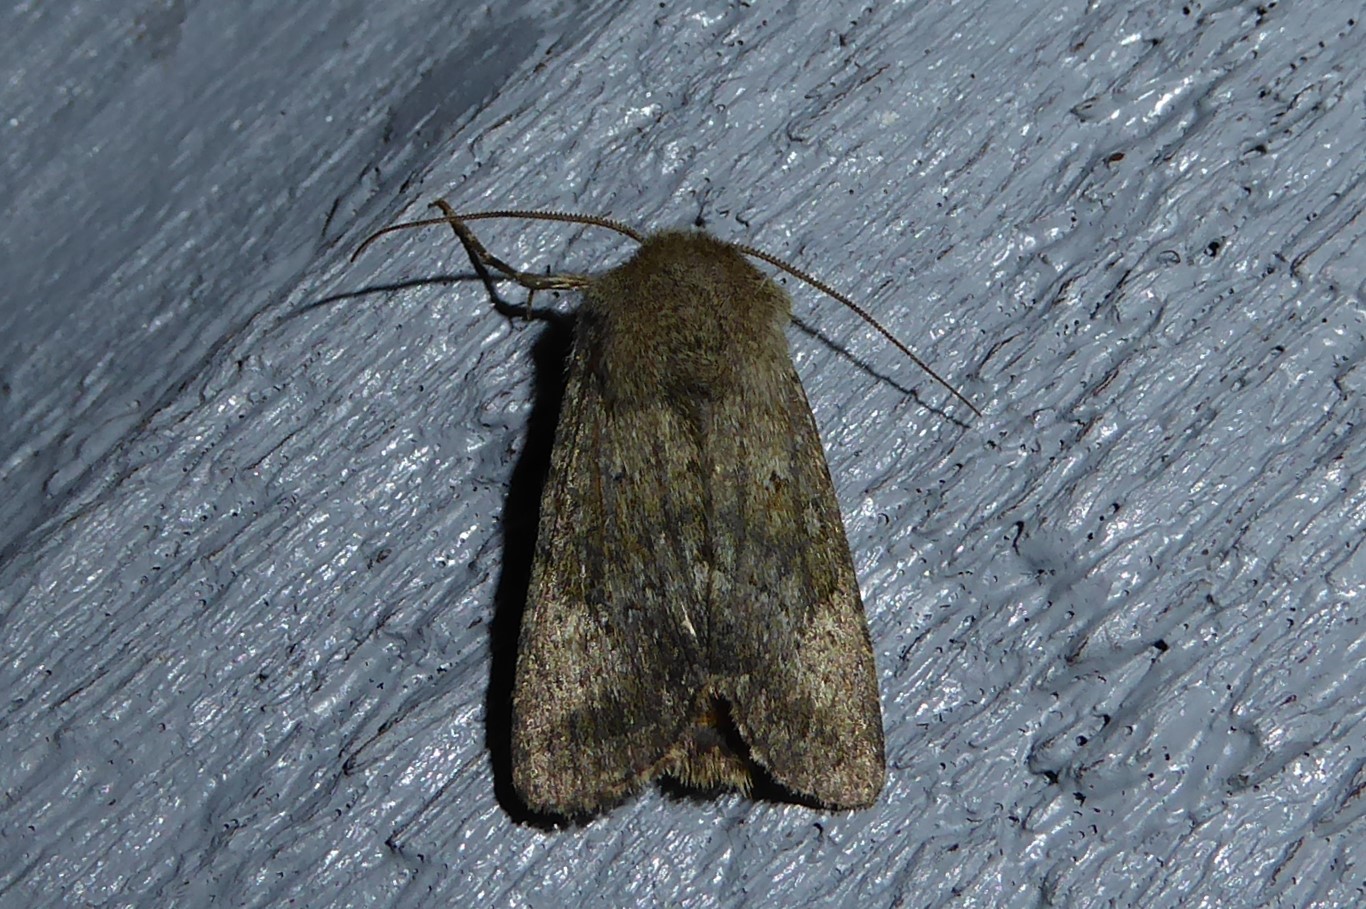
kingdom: Animalia
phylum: Arthropoda
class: Insecta
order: Lepidoptera
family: Noctuidae
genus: Ichneutica
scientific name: Ichneutica moderata
